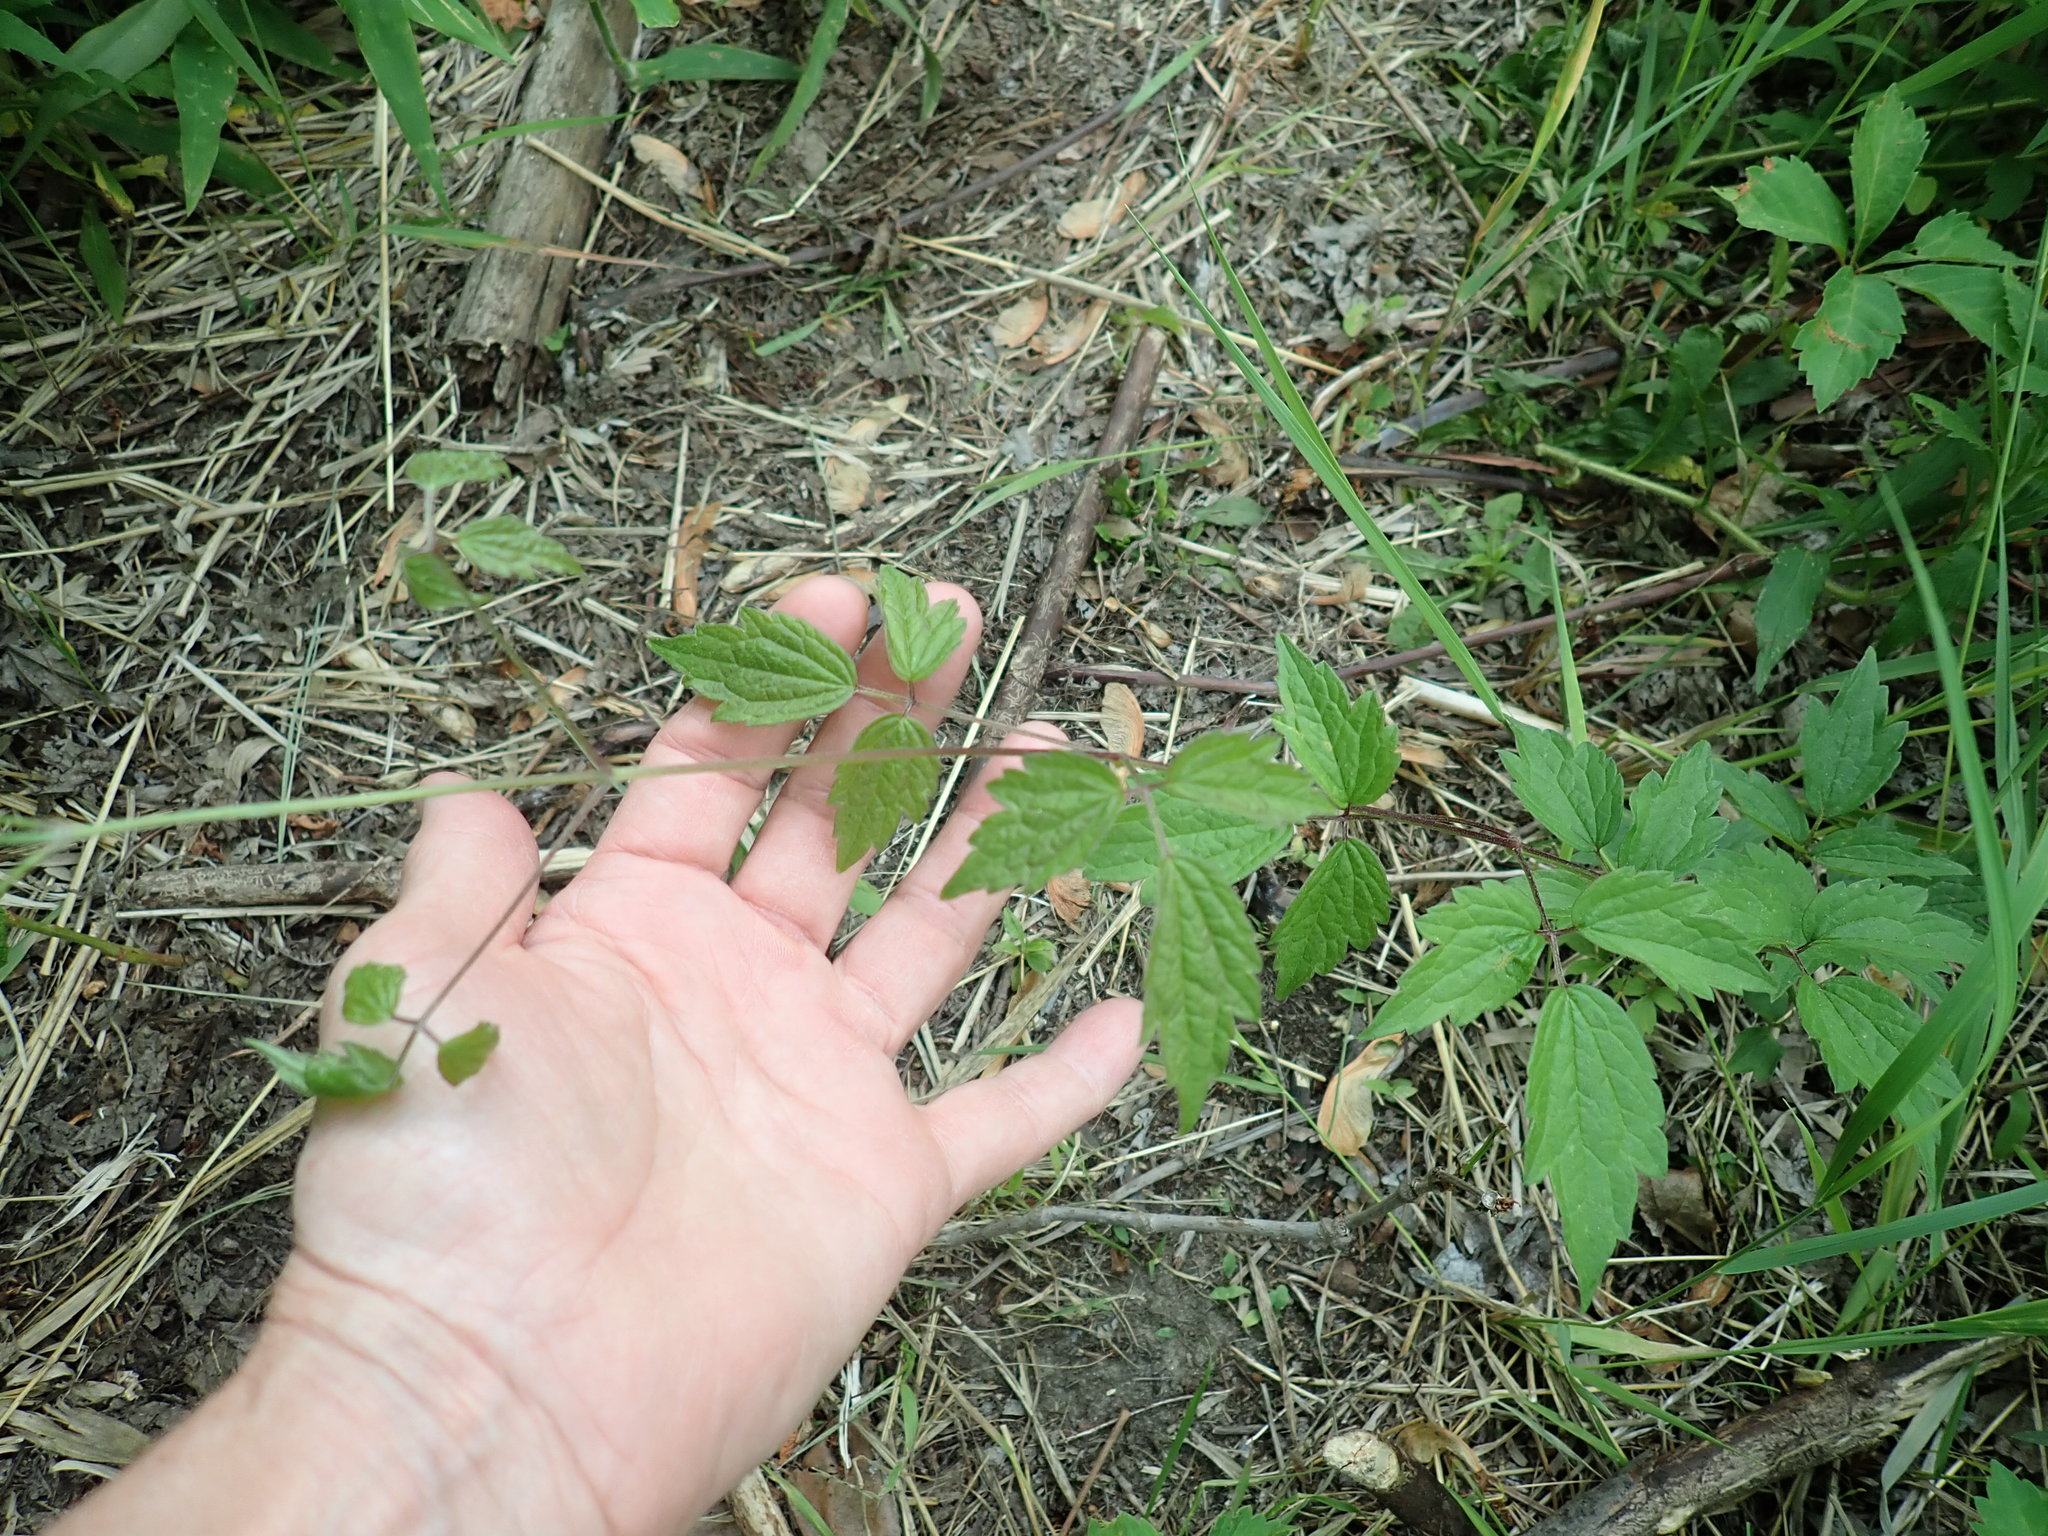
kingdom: Plantae
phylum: Tracheophyta
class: Magnoliopsida
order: Ranunculales
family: Ranunculaceae
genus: Clematis
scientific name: Clematis virginiana
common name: Virgin's-bower
